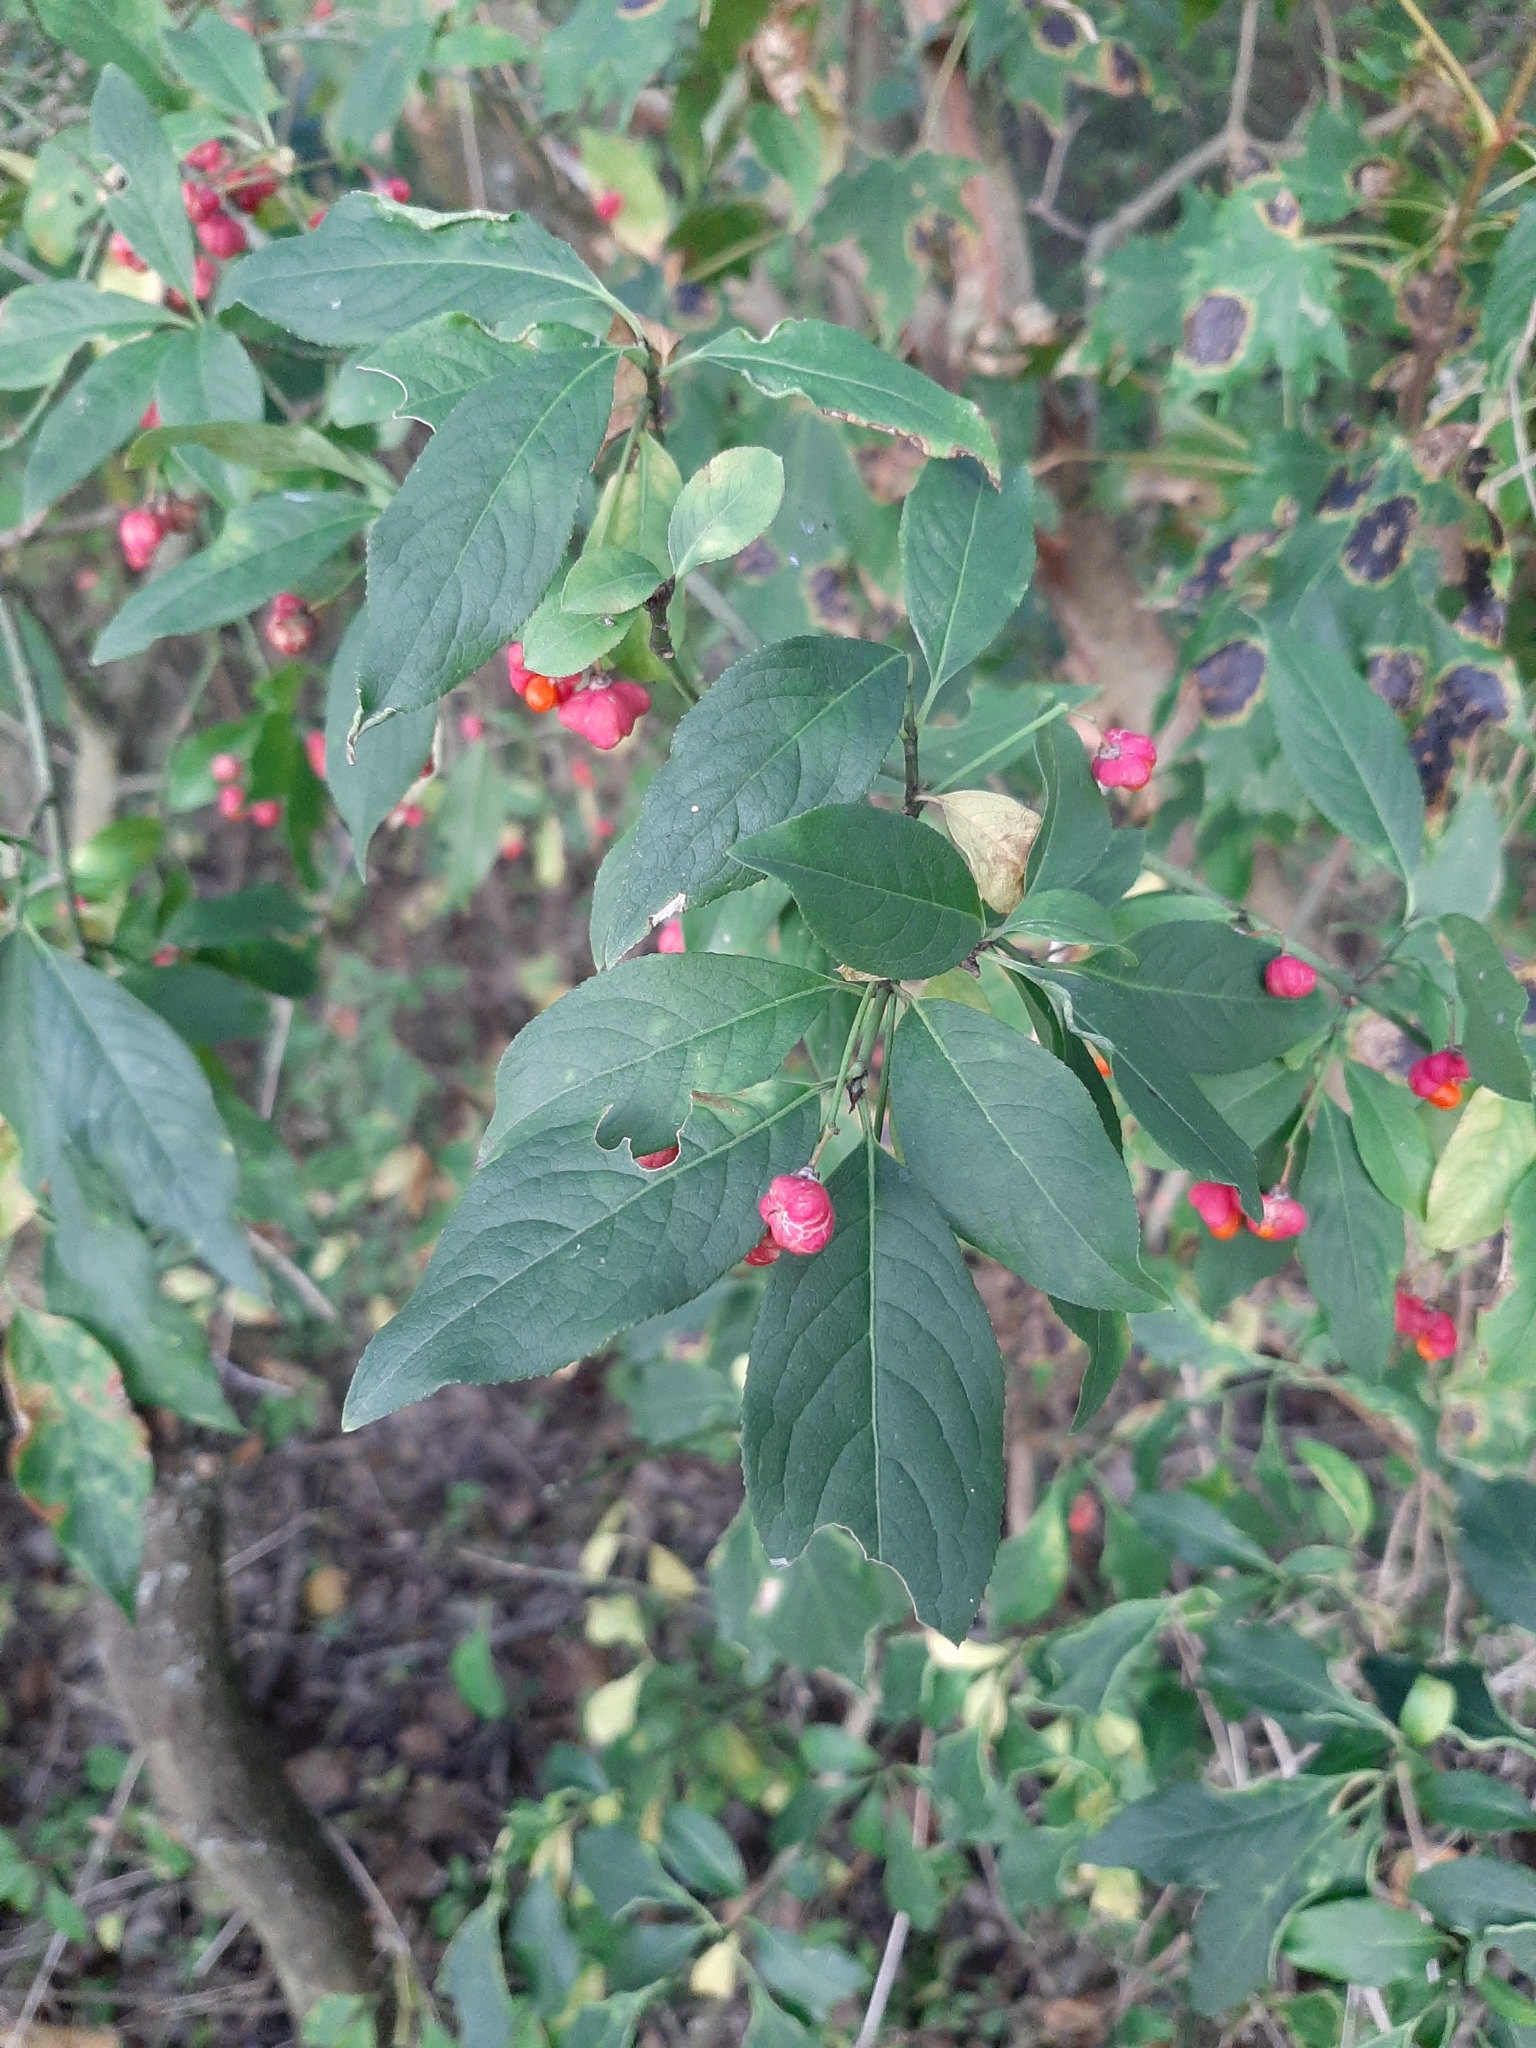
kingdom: Plantae
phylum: Tracheophyta
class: Magnoliopsida
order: Celastrales
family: Celastraceae
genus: Euonymus
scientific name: Euonymus europaeus
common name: Spindle
